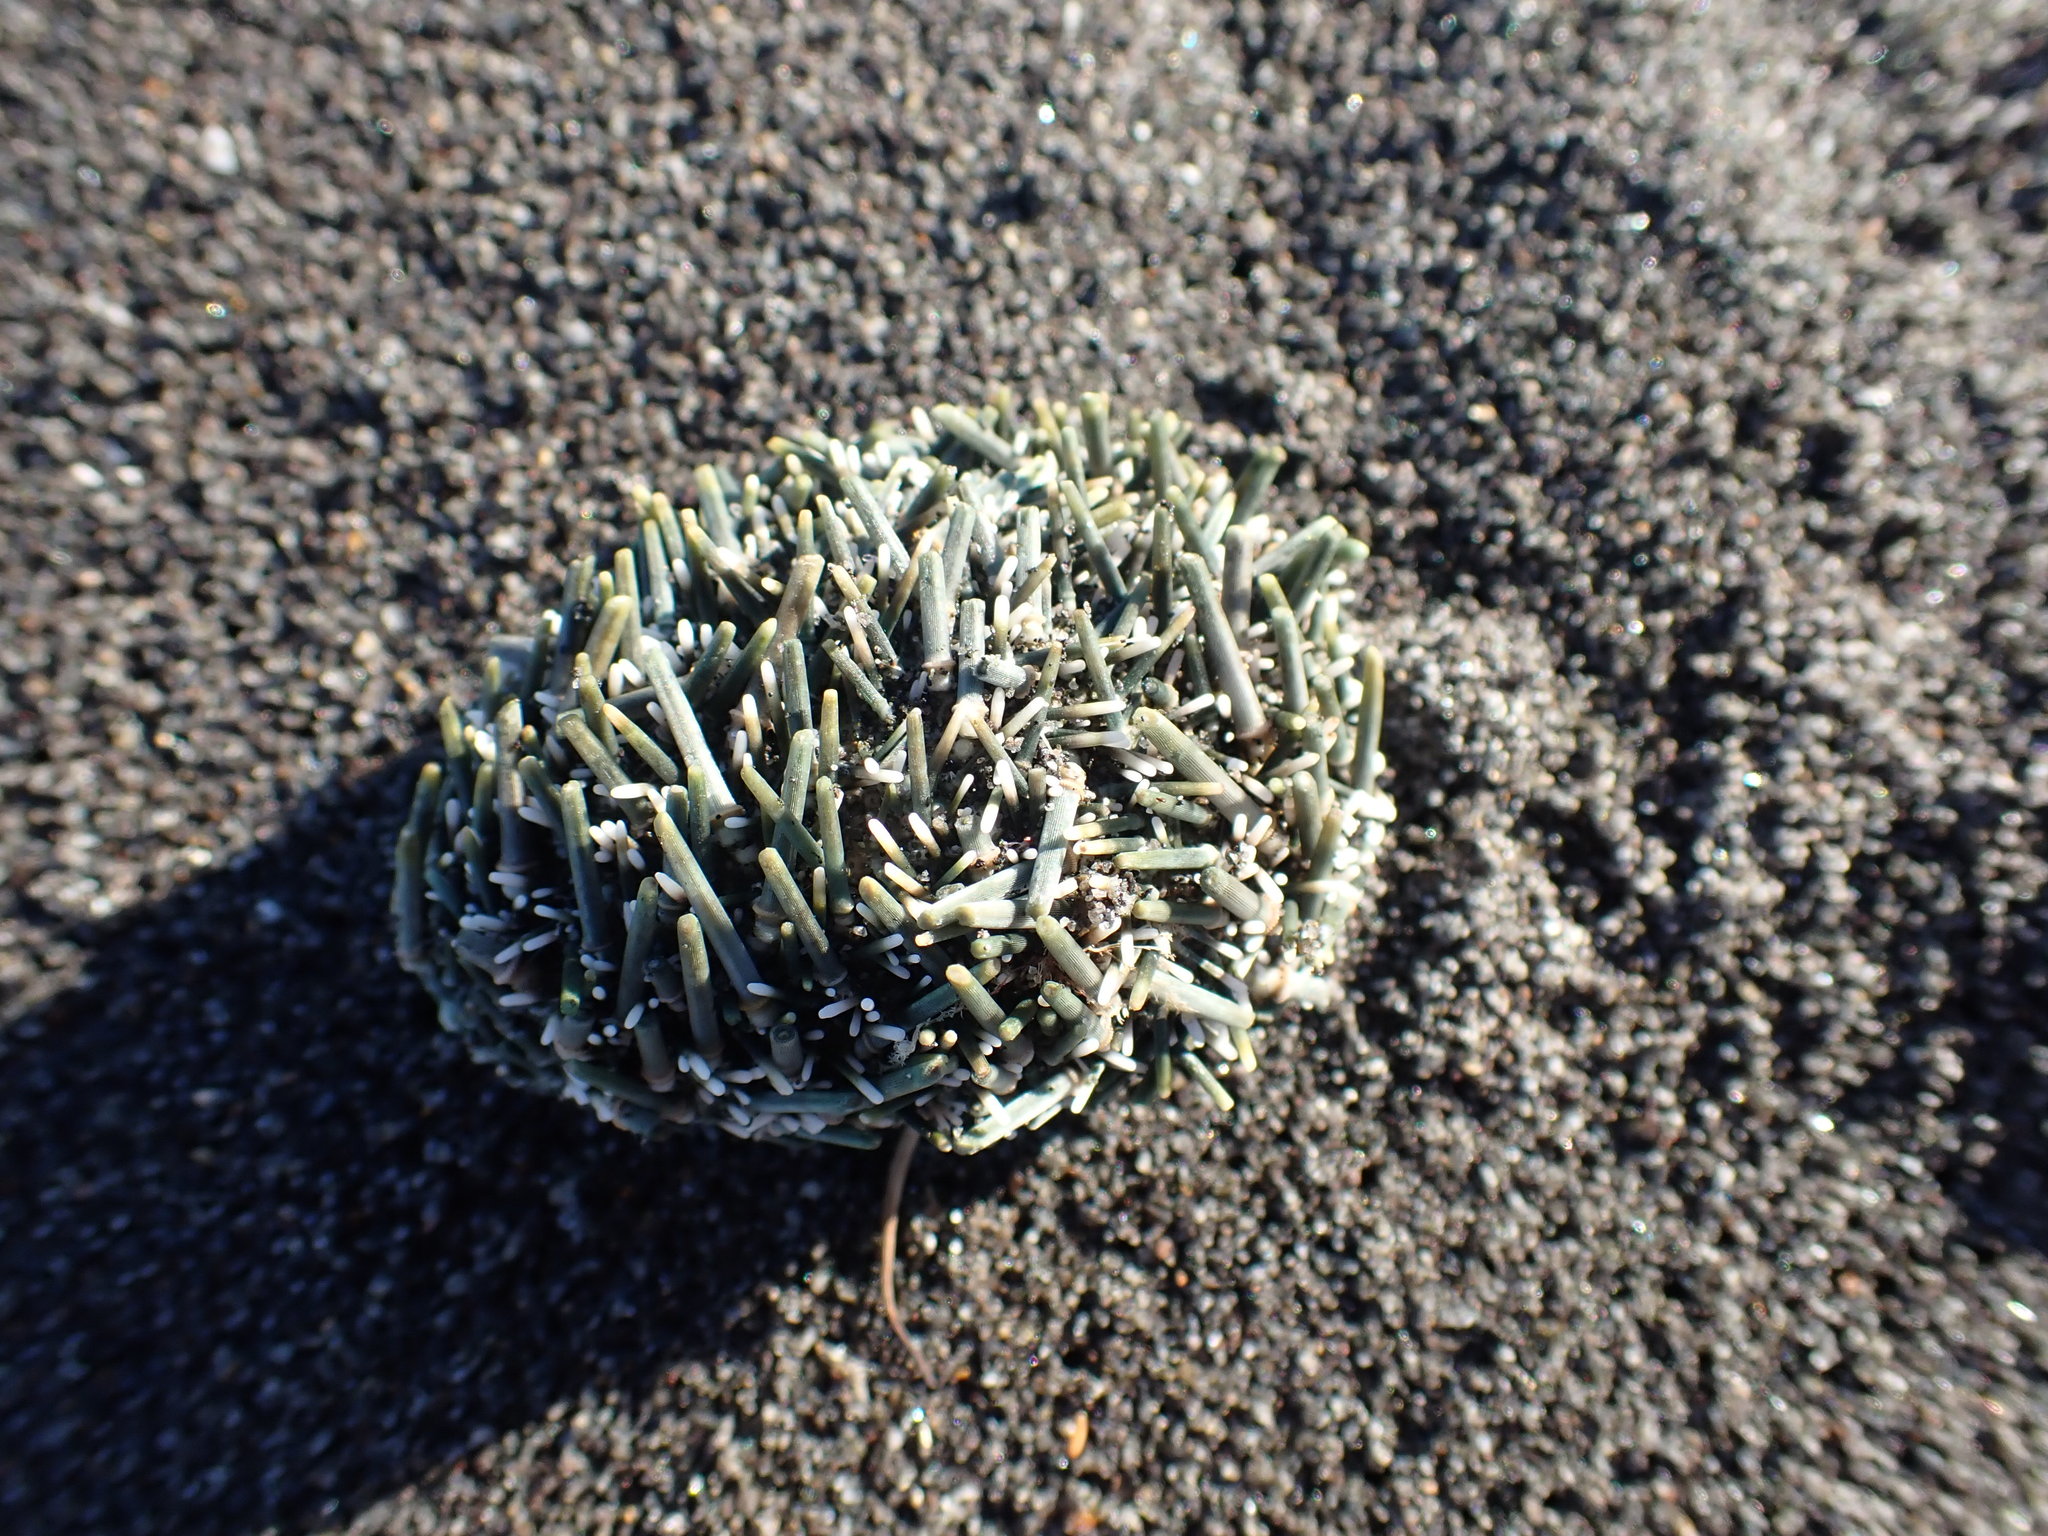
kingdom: Animalia
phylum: Echinodermata
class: Echinoidea
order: Camarodonta
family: Echinometridae
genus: Evechinus
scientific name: Evechinus chloroticus
